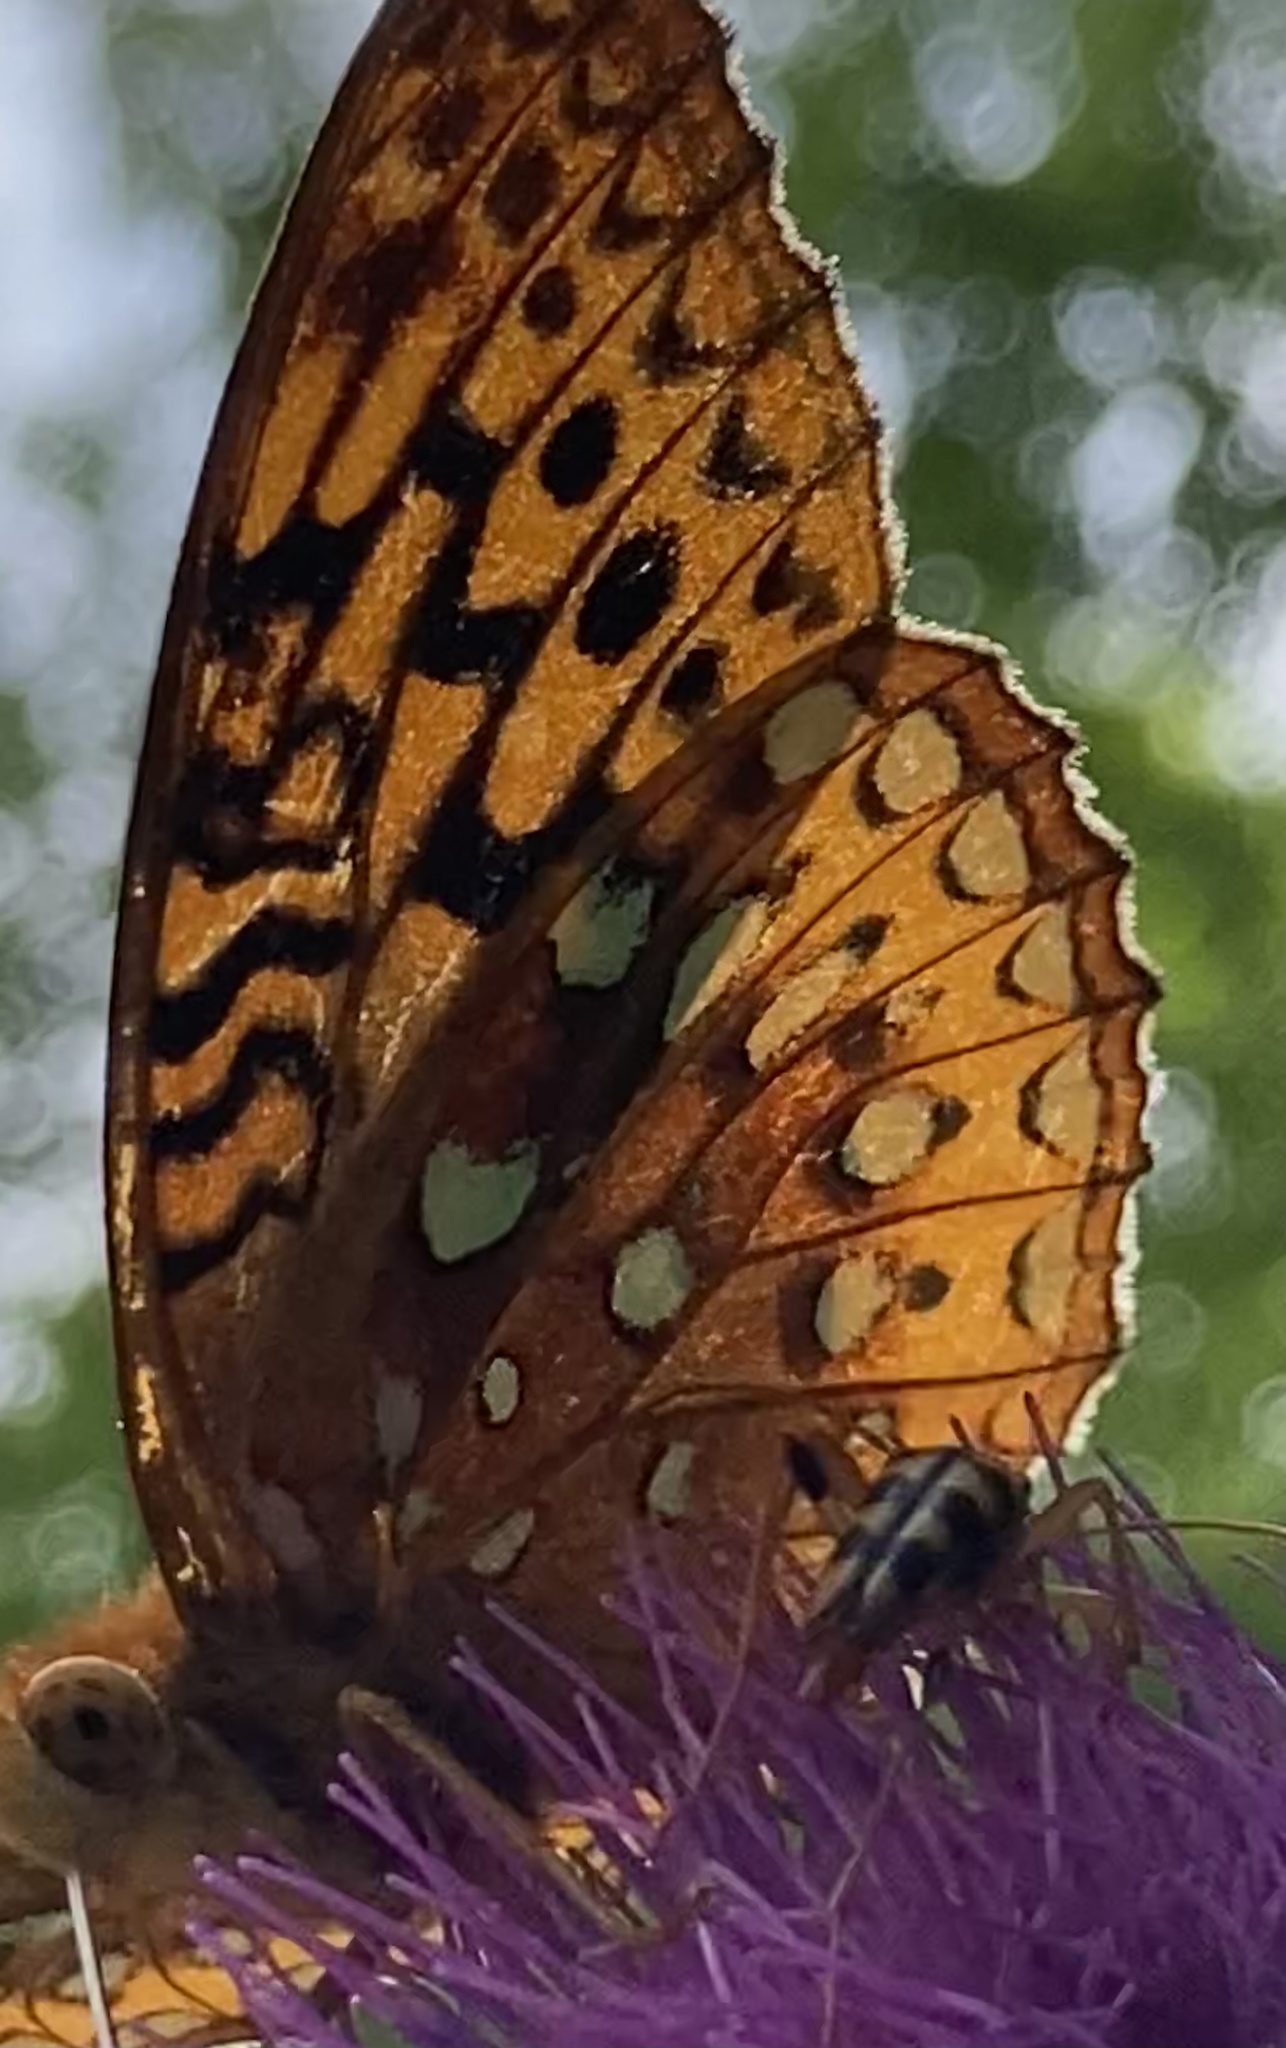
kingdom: Animalia
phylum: Arthropoda
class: Insecta
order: Lepidoptera
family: Nymphalidae
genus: Speyeria
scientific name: Speyeria cybele
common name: Great spangled fritillary
